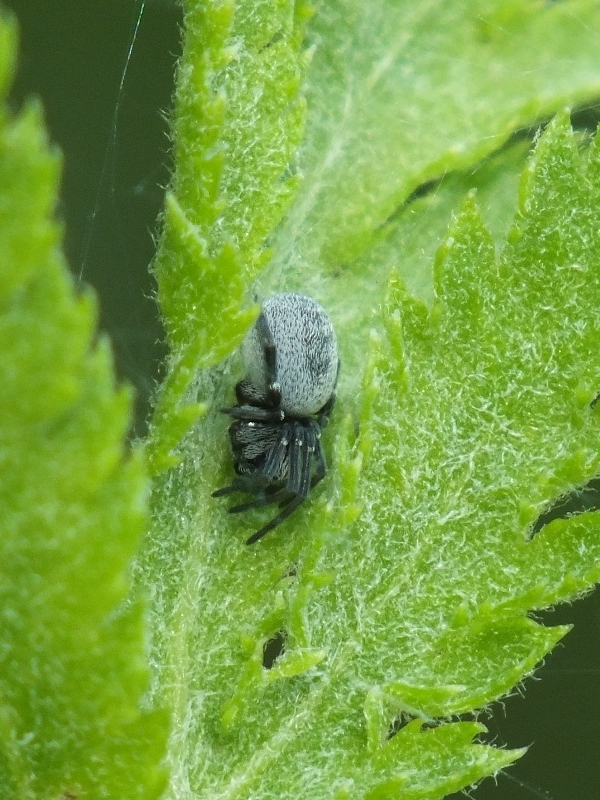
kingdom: Animalia
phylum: Arthropoda
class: Arachnida
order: Araneae
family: Dictynidae
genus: Brigittea
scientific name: Brigittea latens
